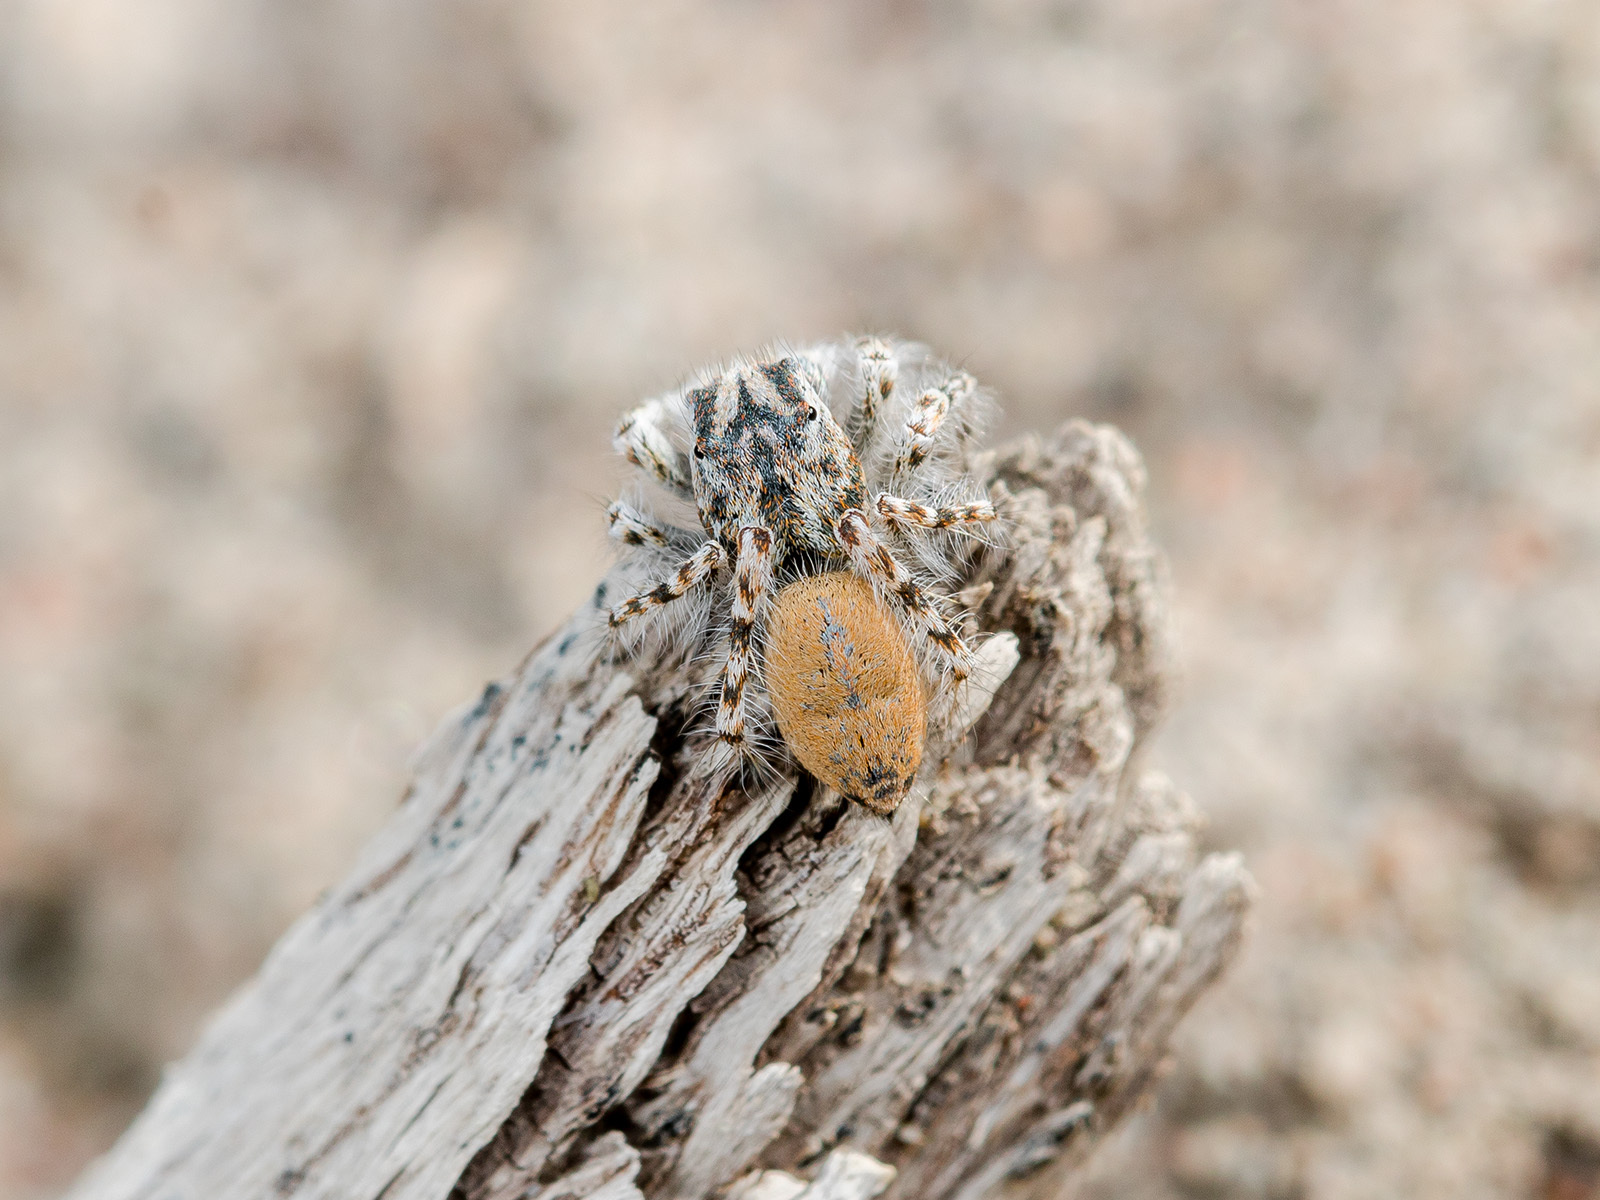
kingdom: Animalia
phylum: Arthropoda
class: Arachnida
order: Araneae
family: Salticidae
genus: Yllenus
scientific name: Yllenus uiguricus
